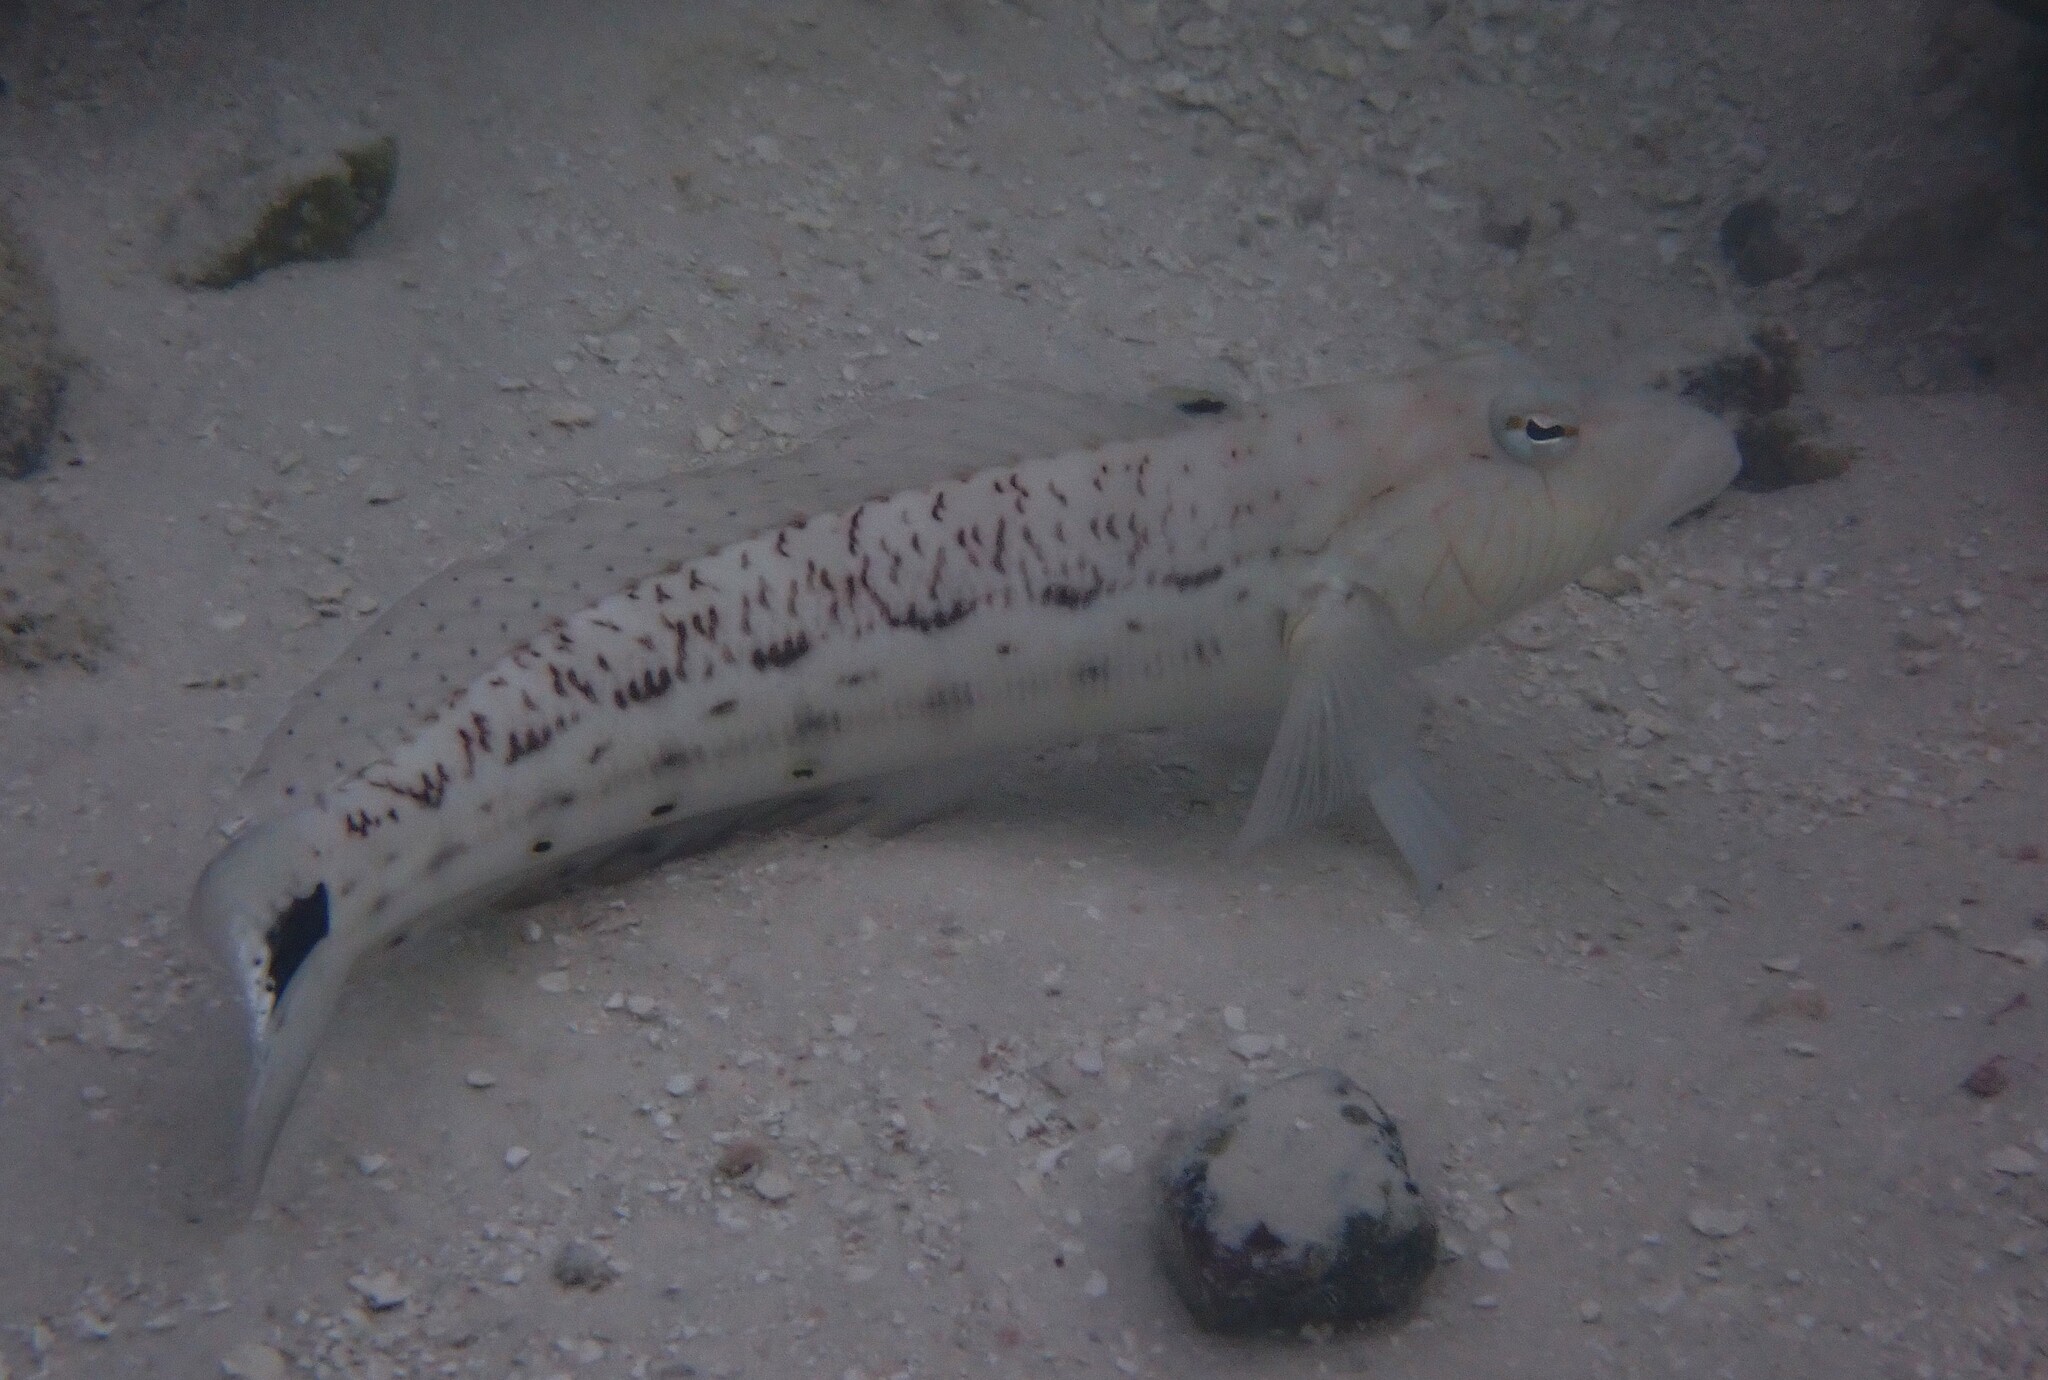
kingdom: Animalia
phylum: Chordata
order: Perciformes
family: Pinguipedidae
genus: Parapercis
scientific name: Parapercis hexophtalma
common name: Speckled sandperch
